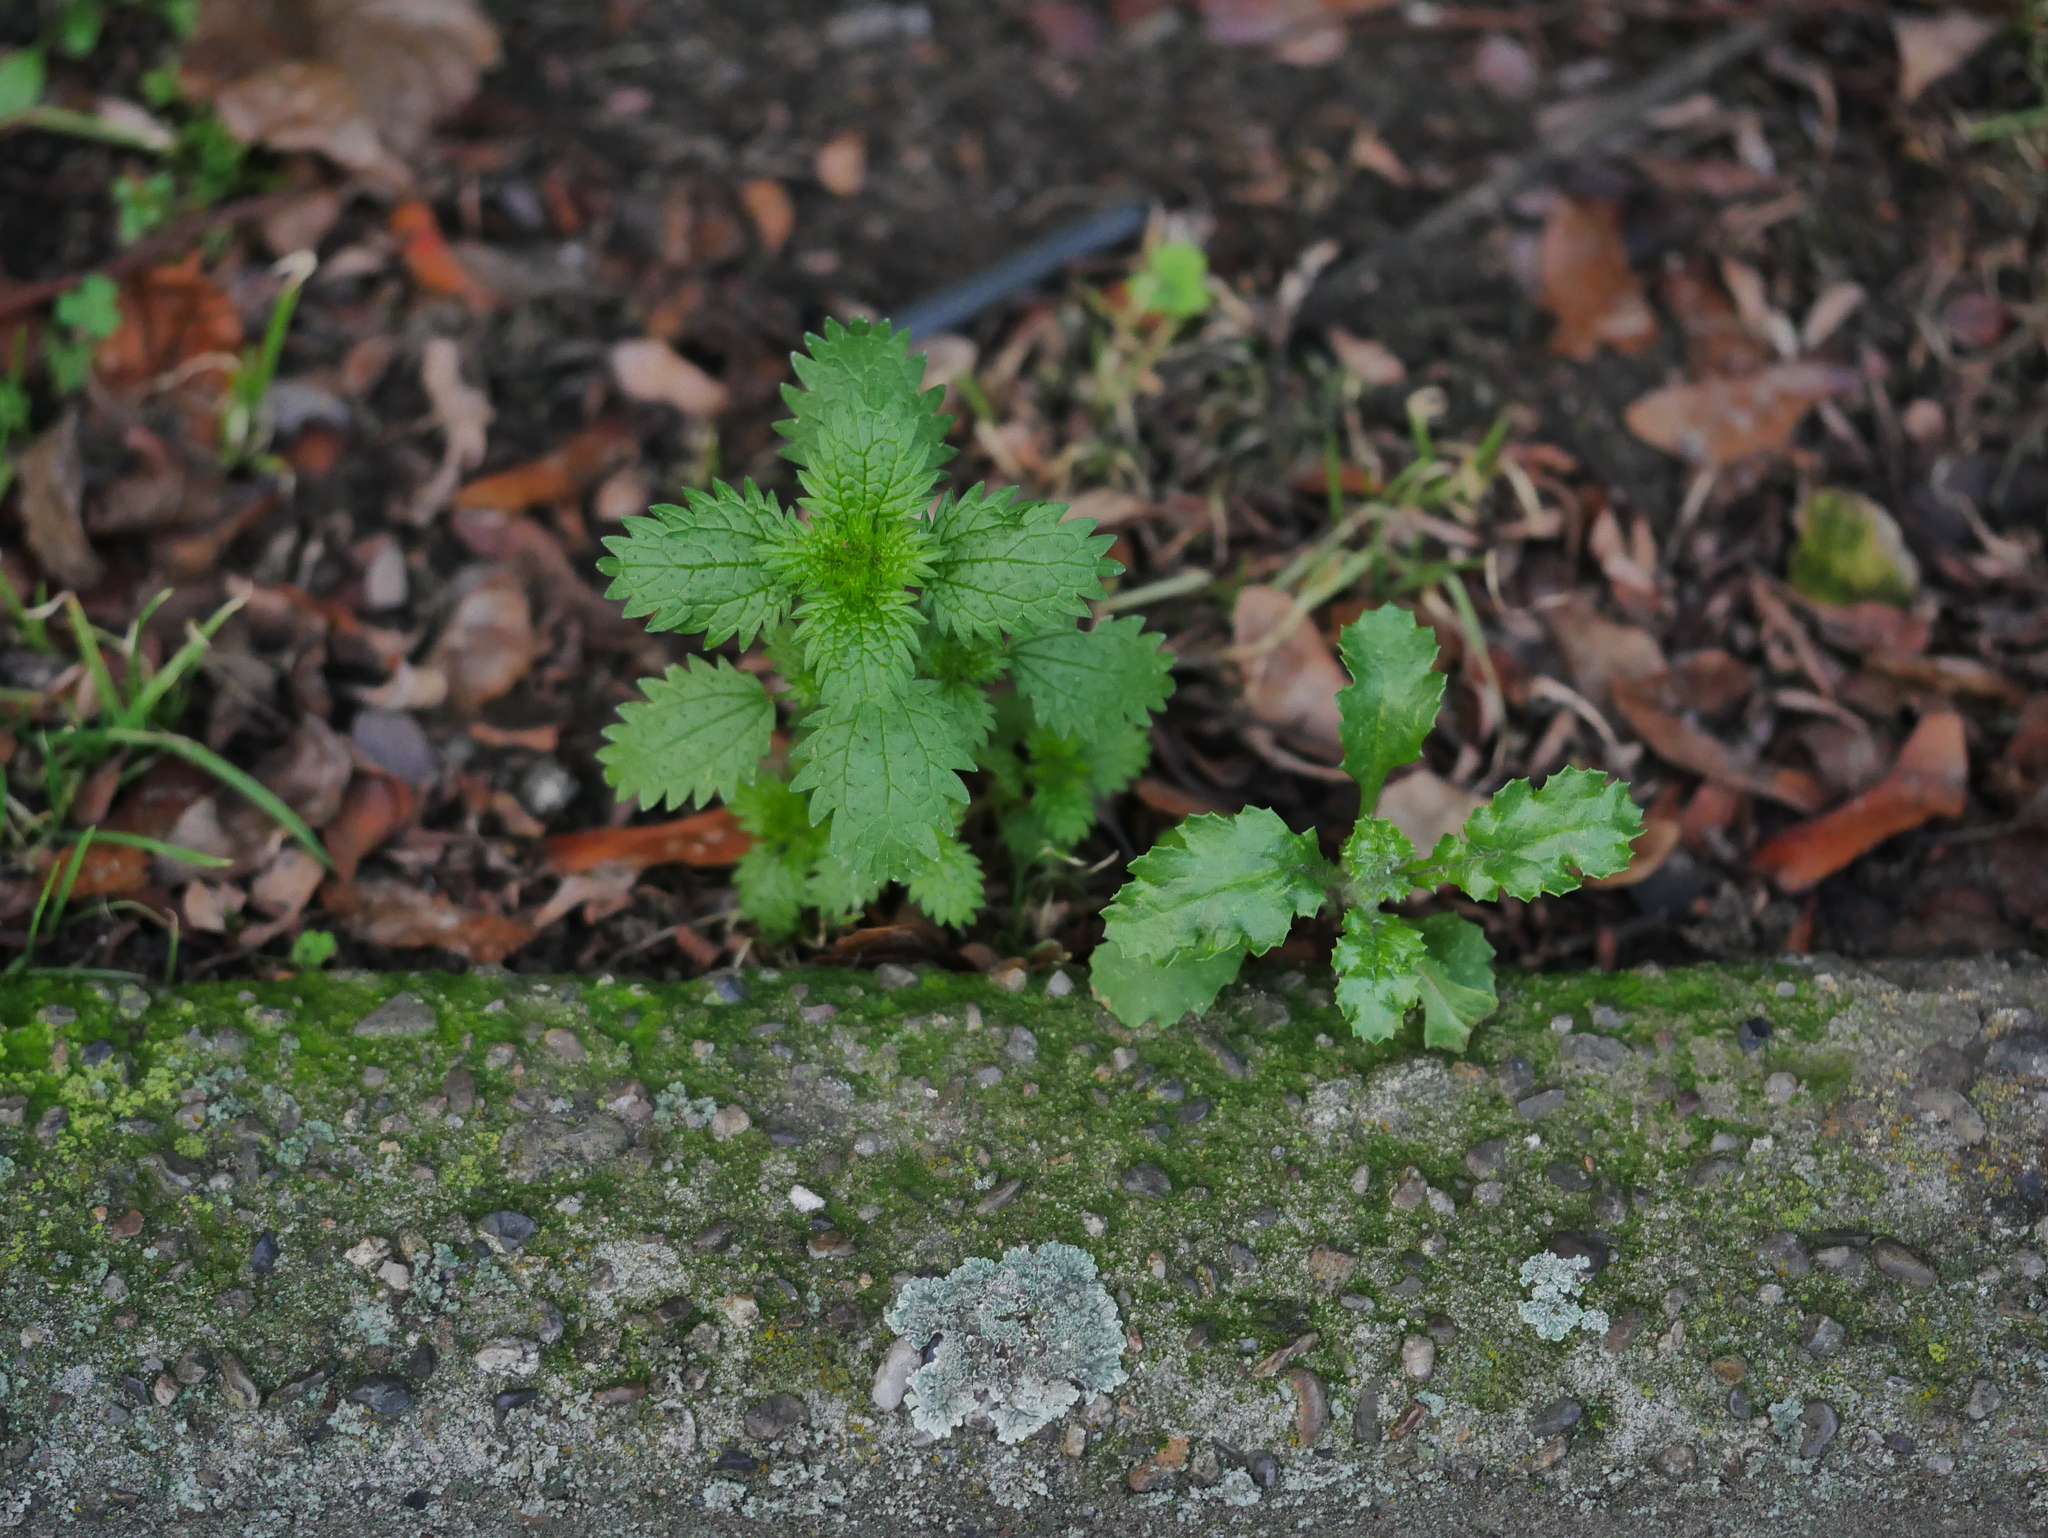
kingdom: Plantae
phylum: Tracheophyta
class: Magnoliopsida
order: Rosales
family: Urticaceae
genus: Urtica
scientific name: Urtica urens
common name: Dwarf nettle
